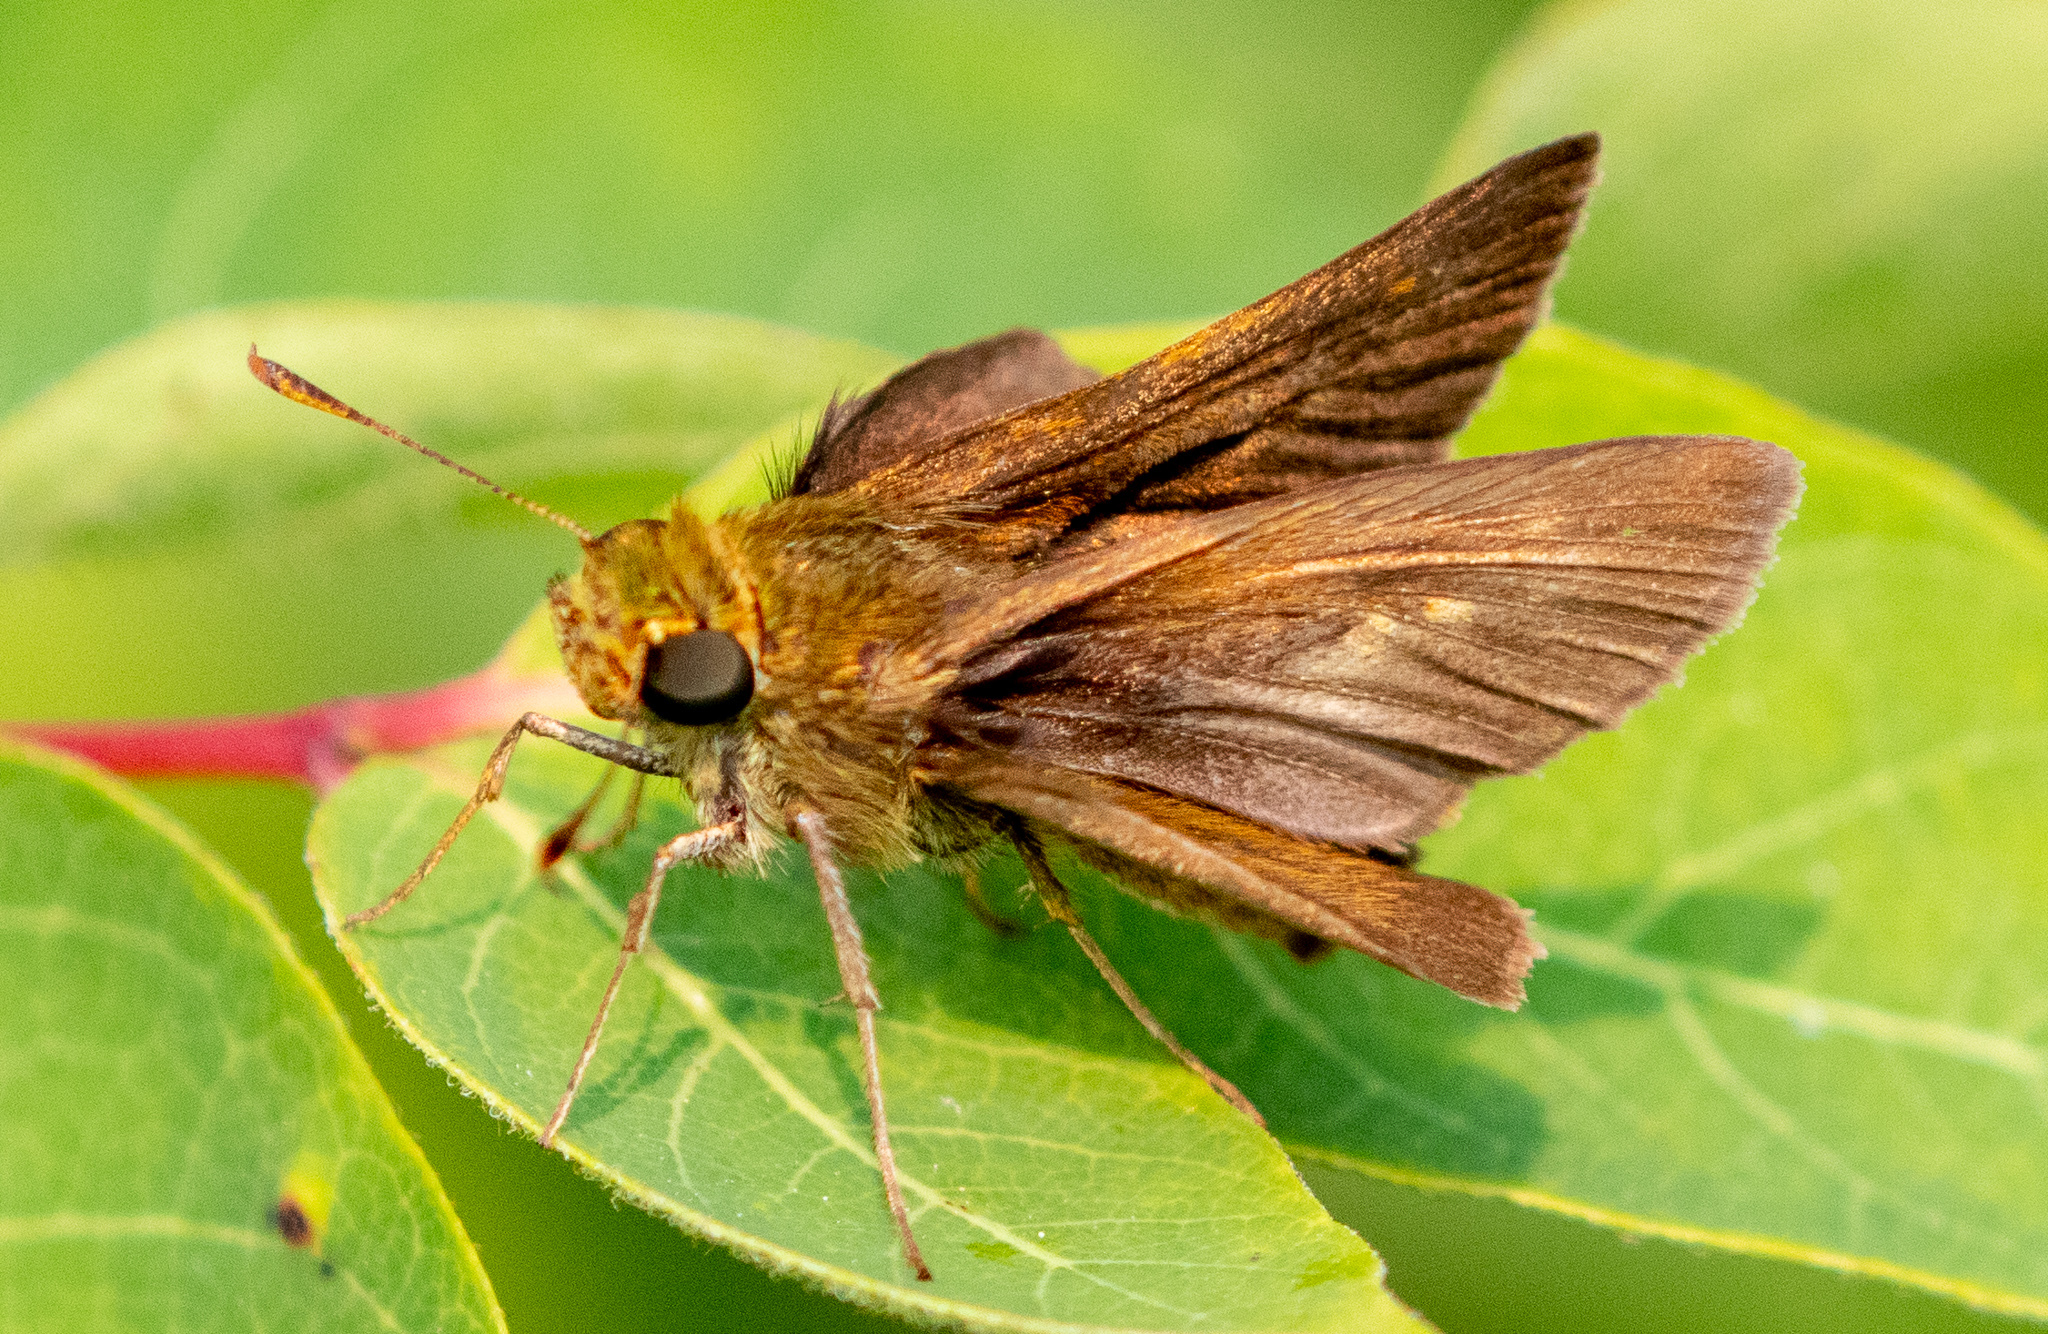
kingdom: Animalia
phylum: Arthropoda
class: Insecta
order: Lepidoptera
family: Hesperiidae
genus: Euphyes
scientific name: Euphyes vestris
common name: Dun skipper
